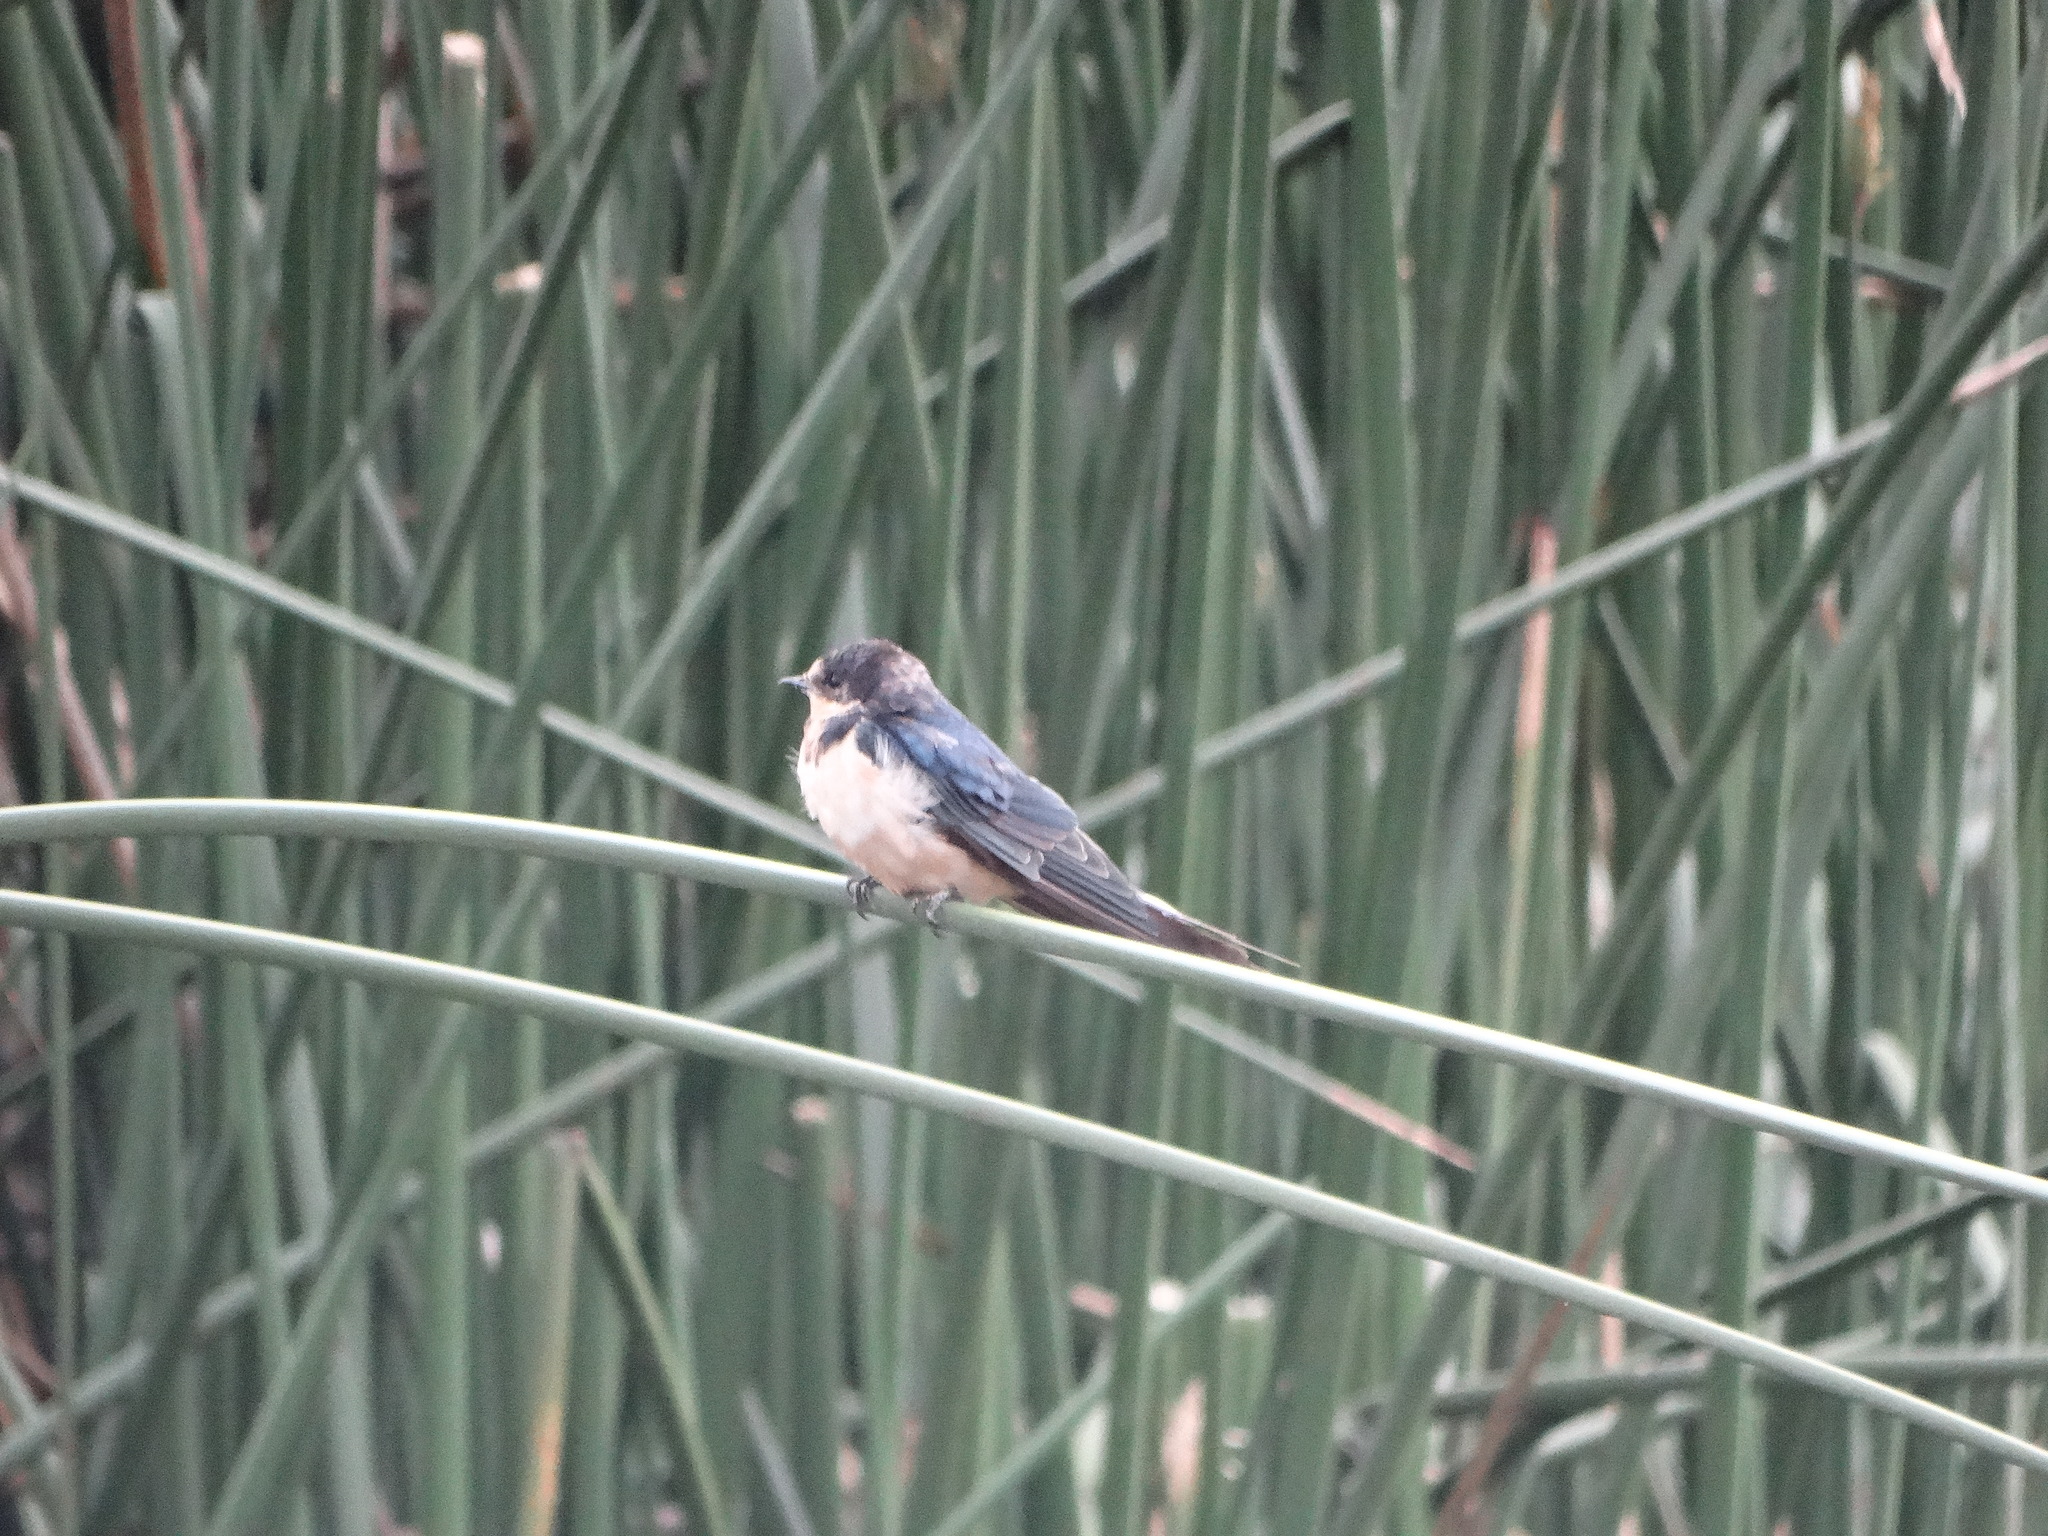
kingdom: Animalia
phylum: Chordata
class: Aves
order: Passeriformes
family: Hirundinidae
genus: Hirundo
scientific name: Hirundo rustica
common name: Barn swallow
